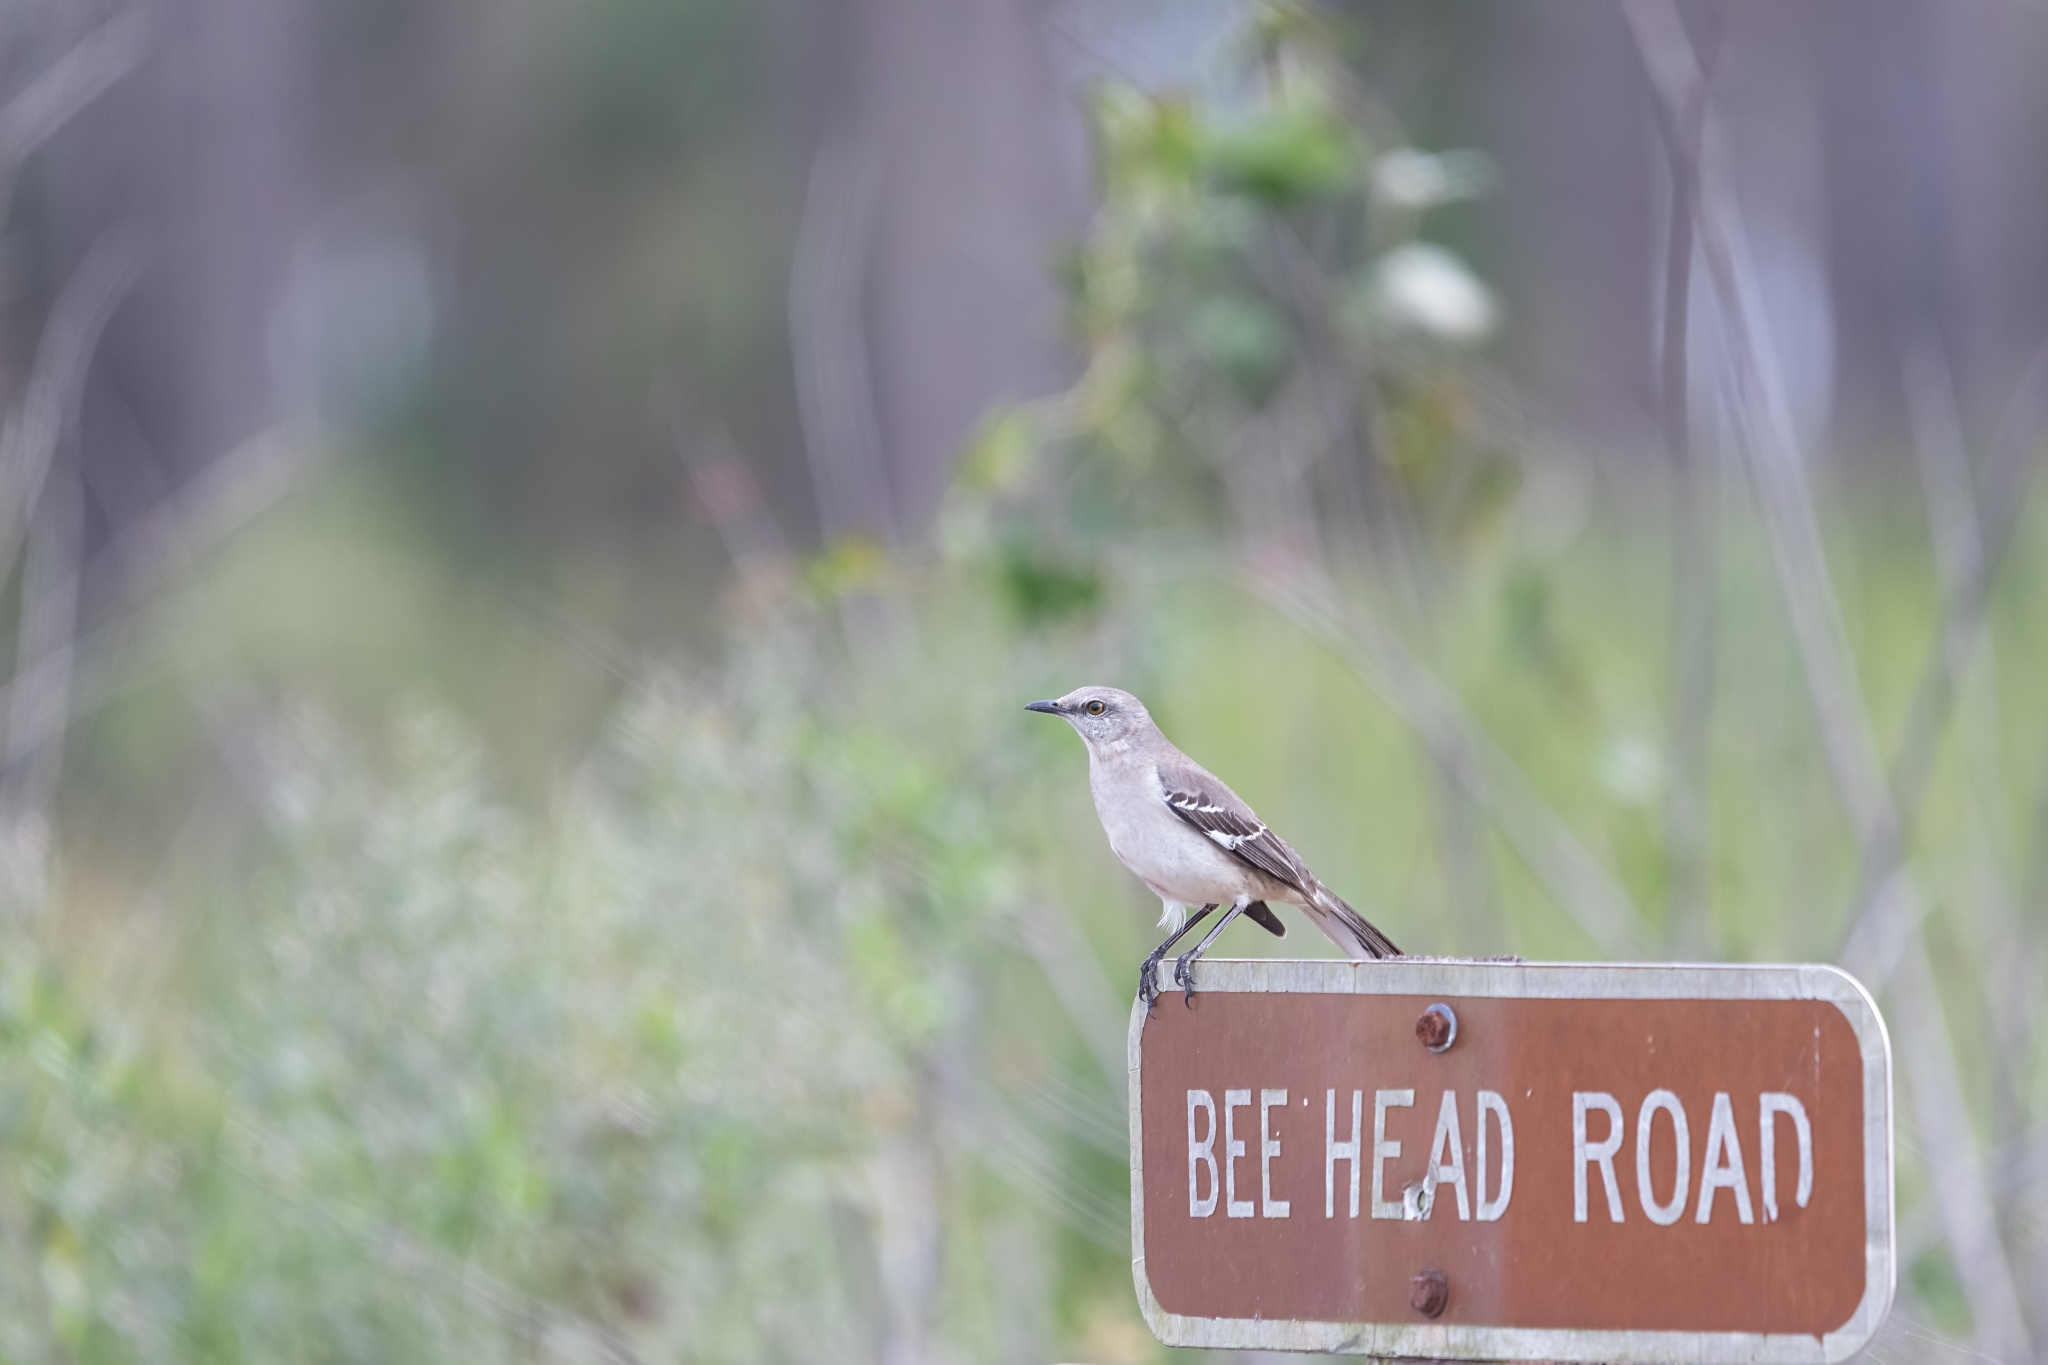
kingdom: Animalia
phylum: Chordata
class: Aves
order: Passeriformes
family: Mimidae
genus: Mimus
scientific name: Mimus polyglottos
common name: Northern mockingbird
